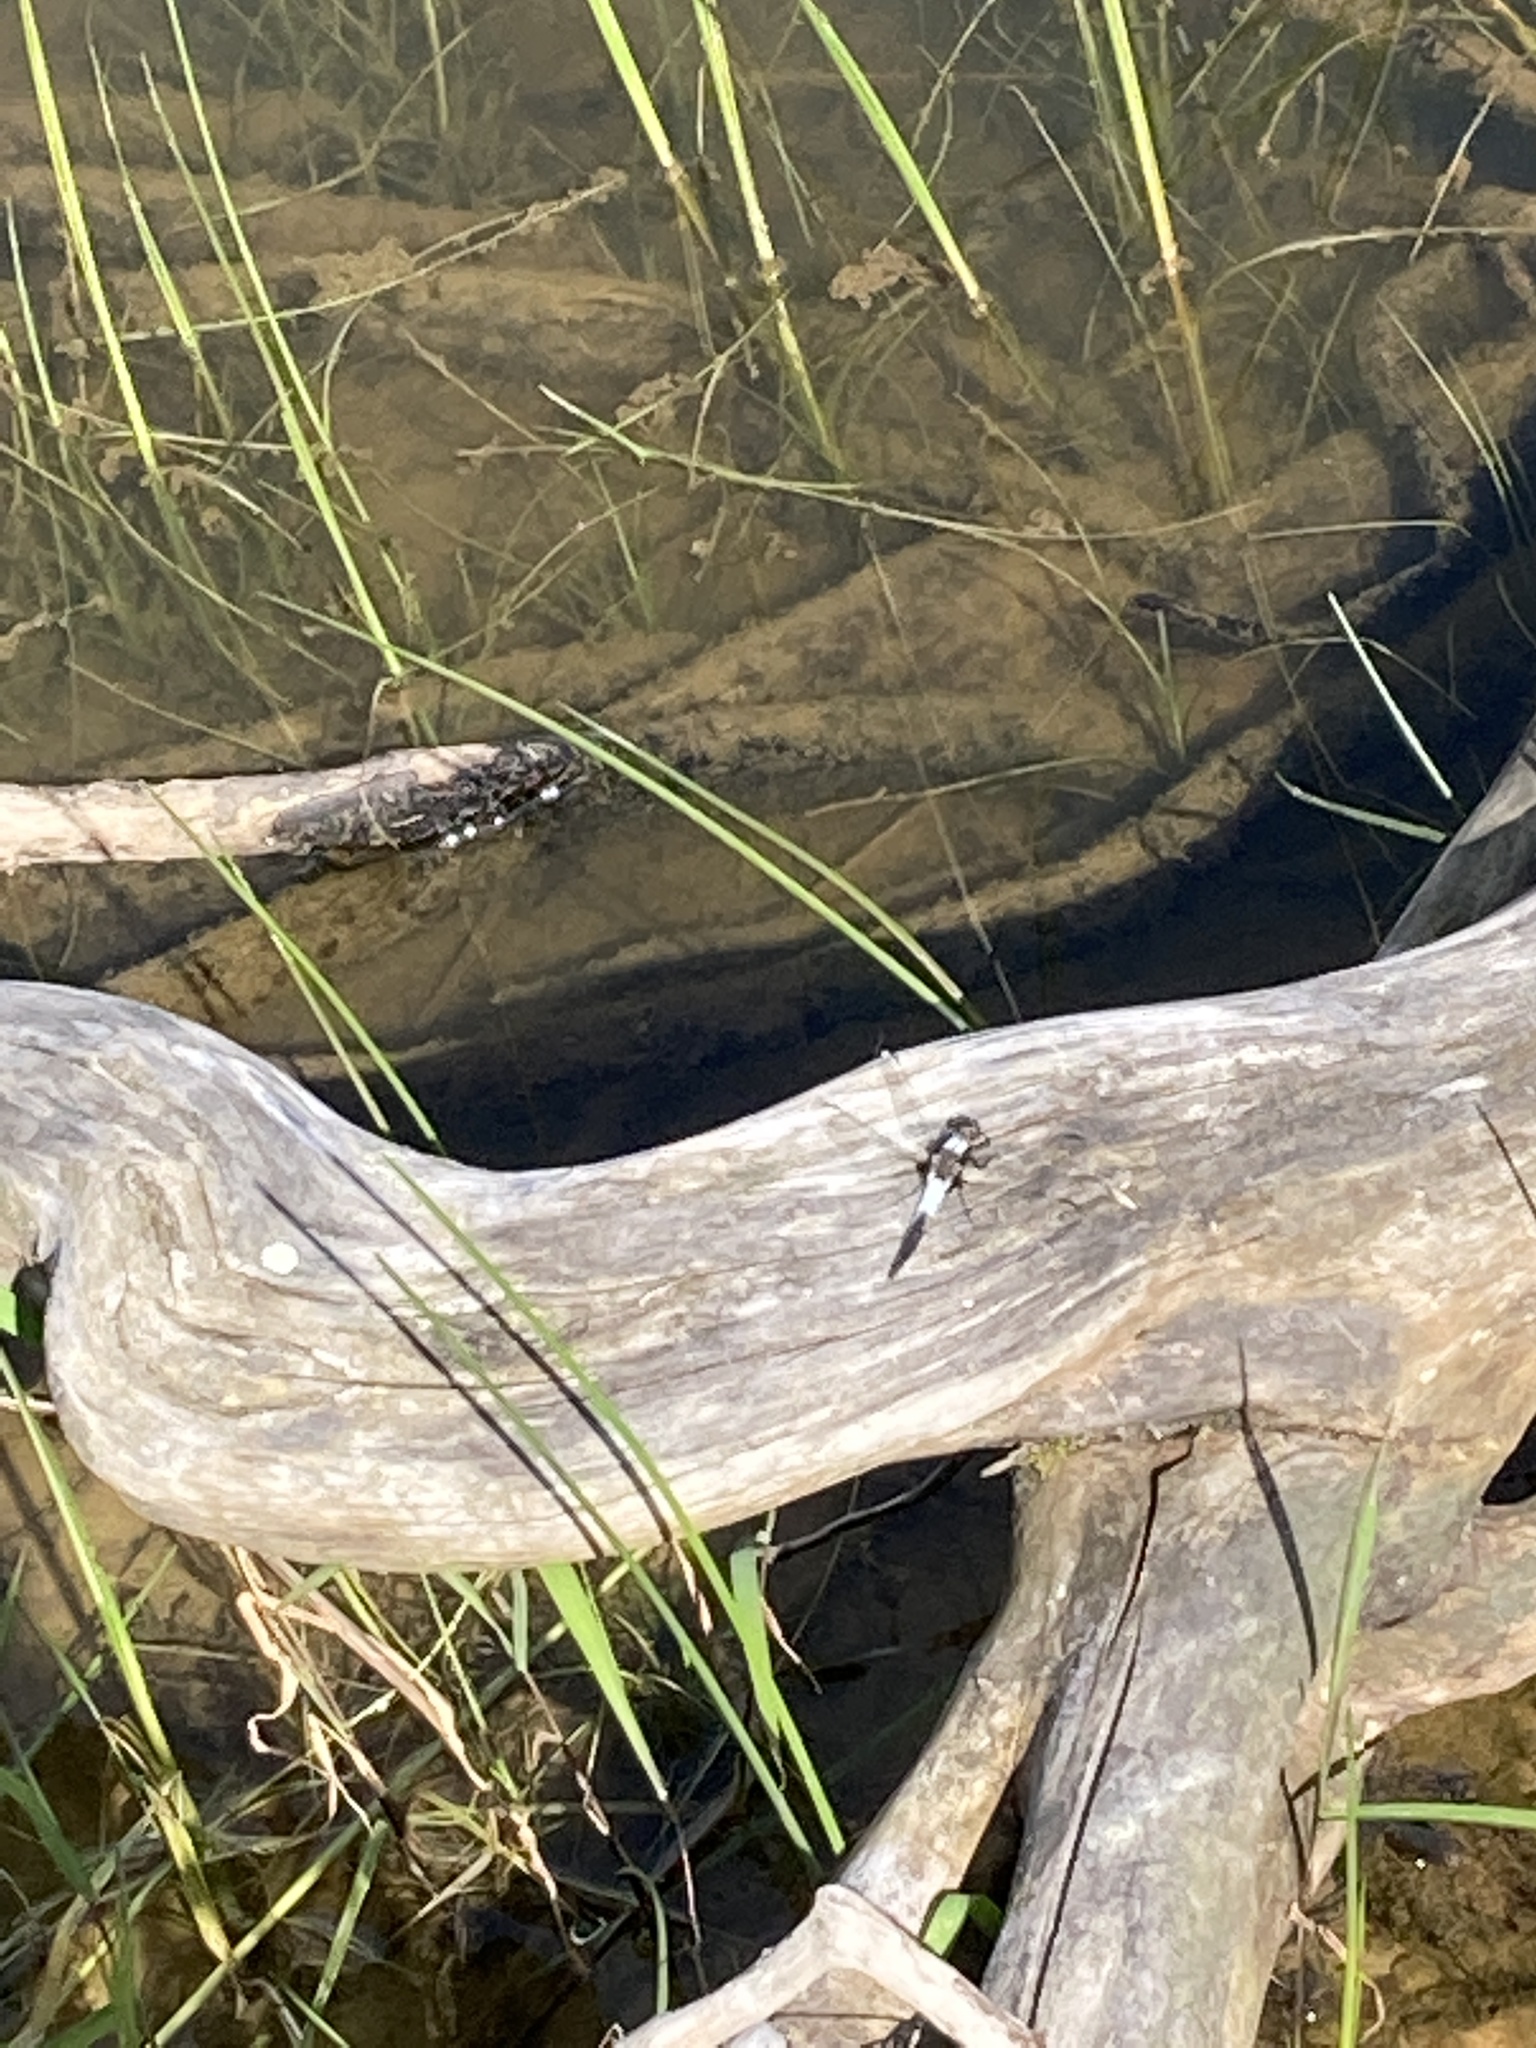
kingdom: Animalia
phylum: Arthropoda
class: Insecta
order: Odonata
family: Libellulidae
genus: Ladona
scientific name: Ladona julia
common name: Chalk-fronted corporal
